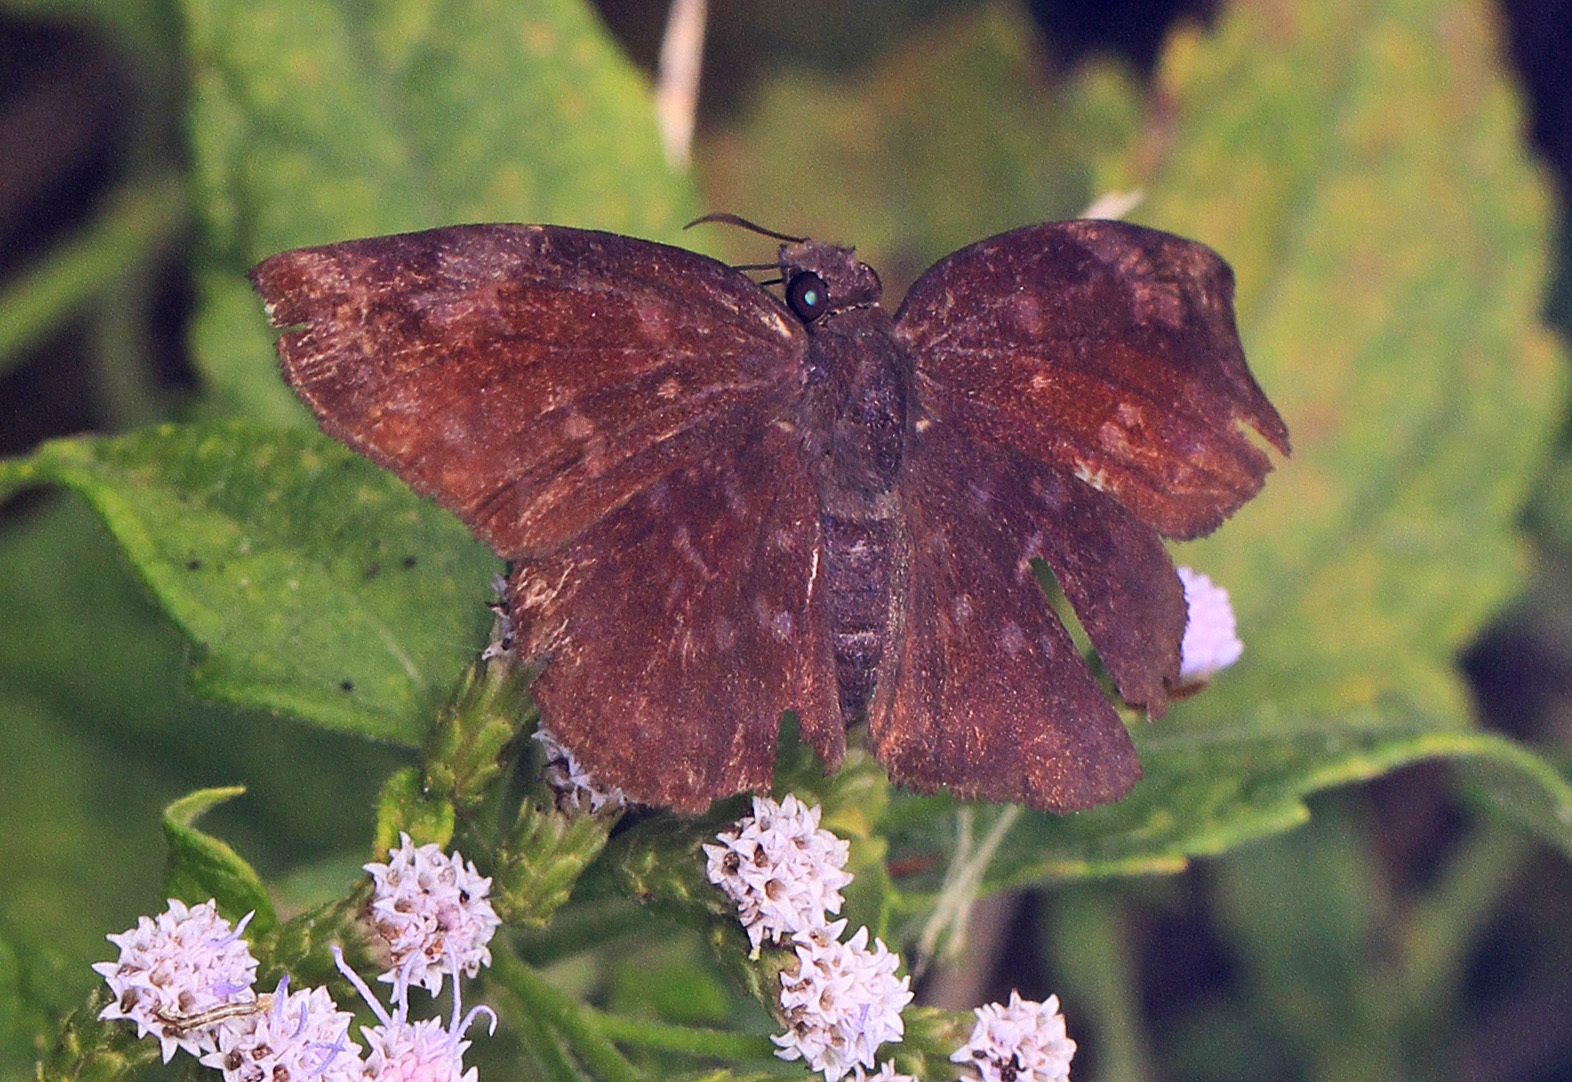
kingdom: Animalia
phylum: Arthropoda
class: Insecta
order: Lepidoptera
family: Hesperiidae
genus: Achlyodes
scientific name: Achlyodes thraso
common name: Sickle-winged skipper
